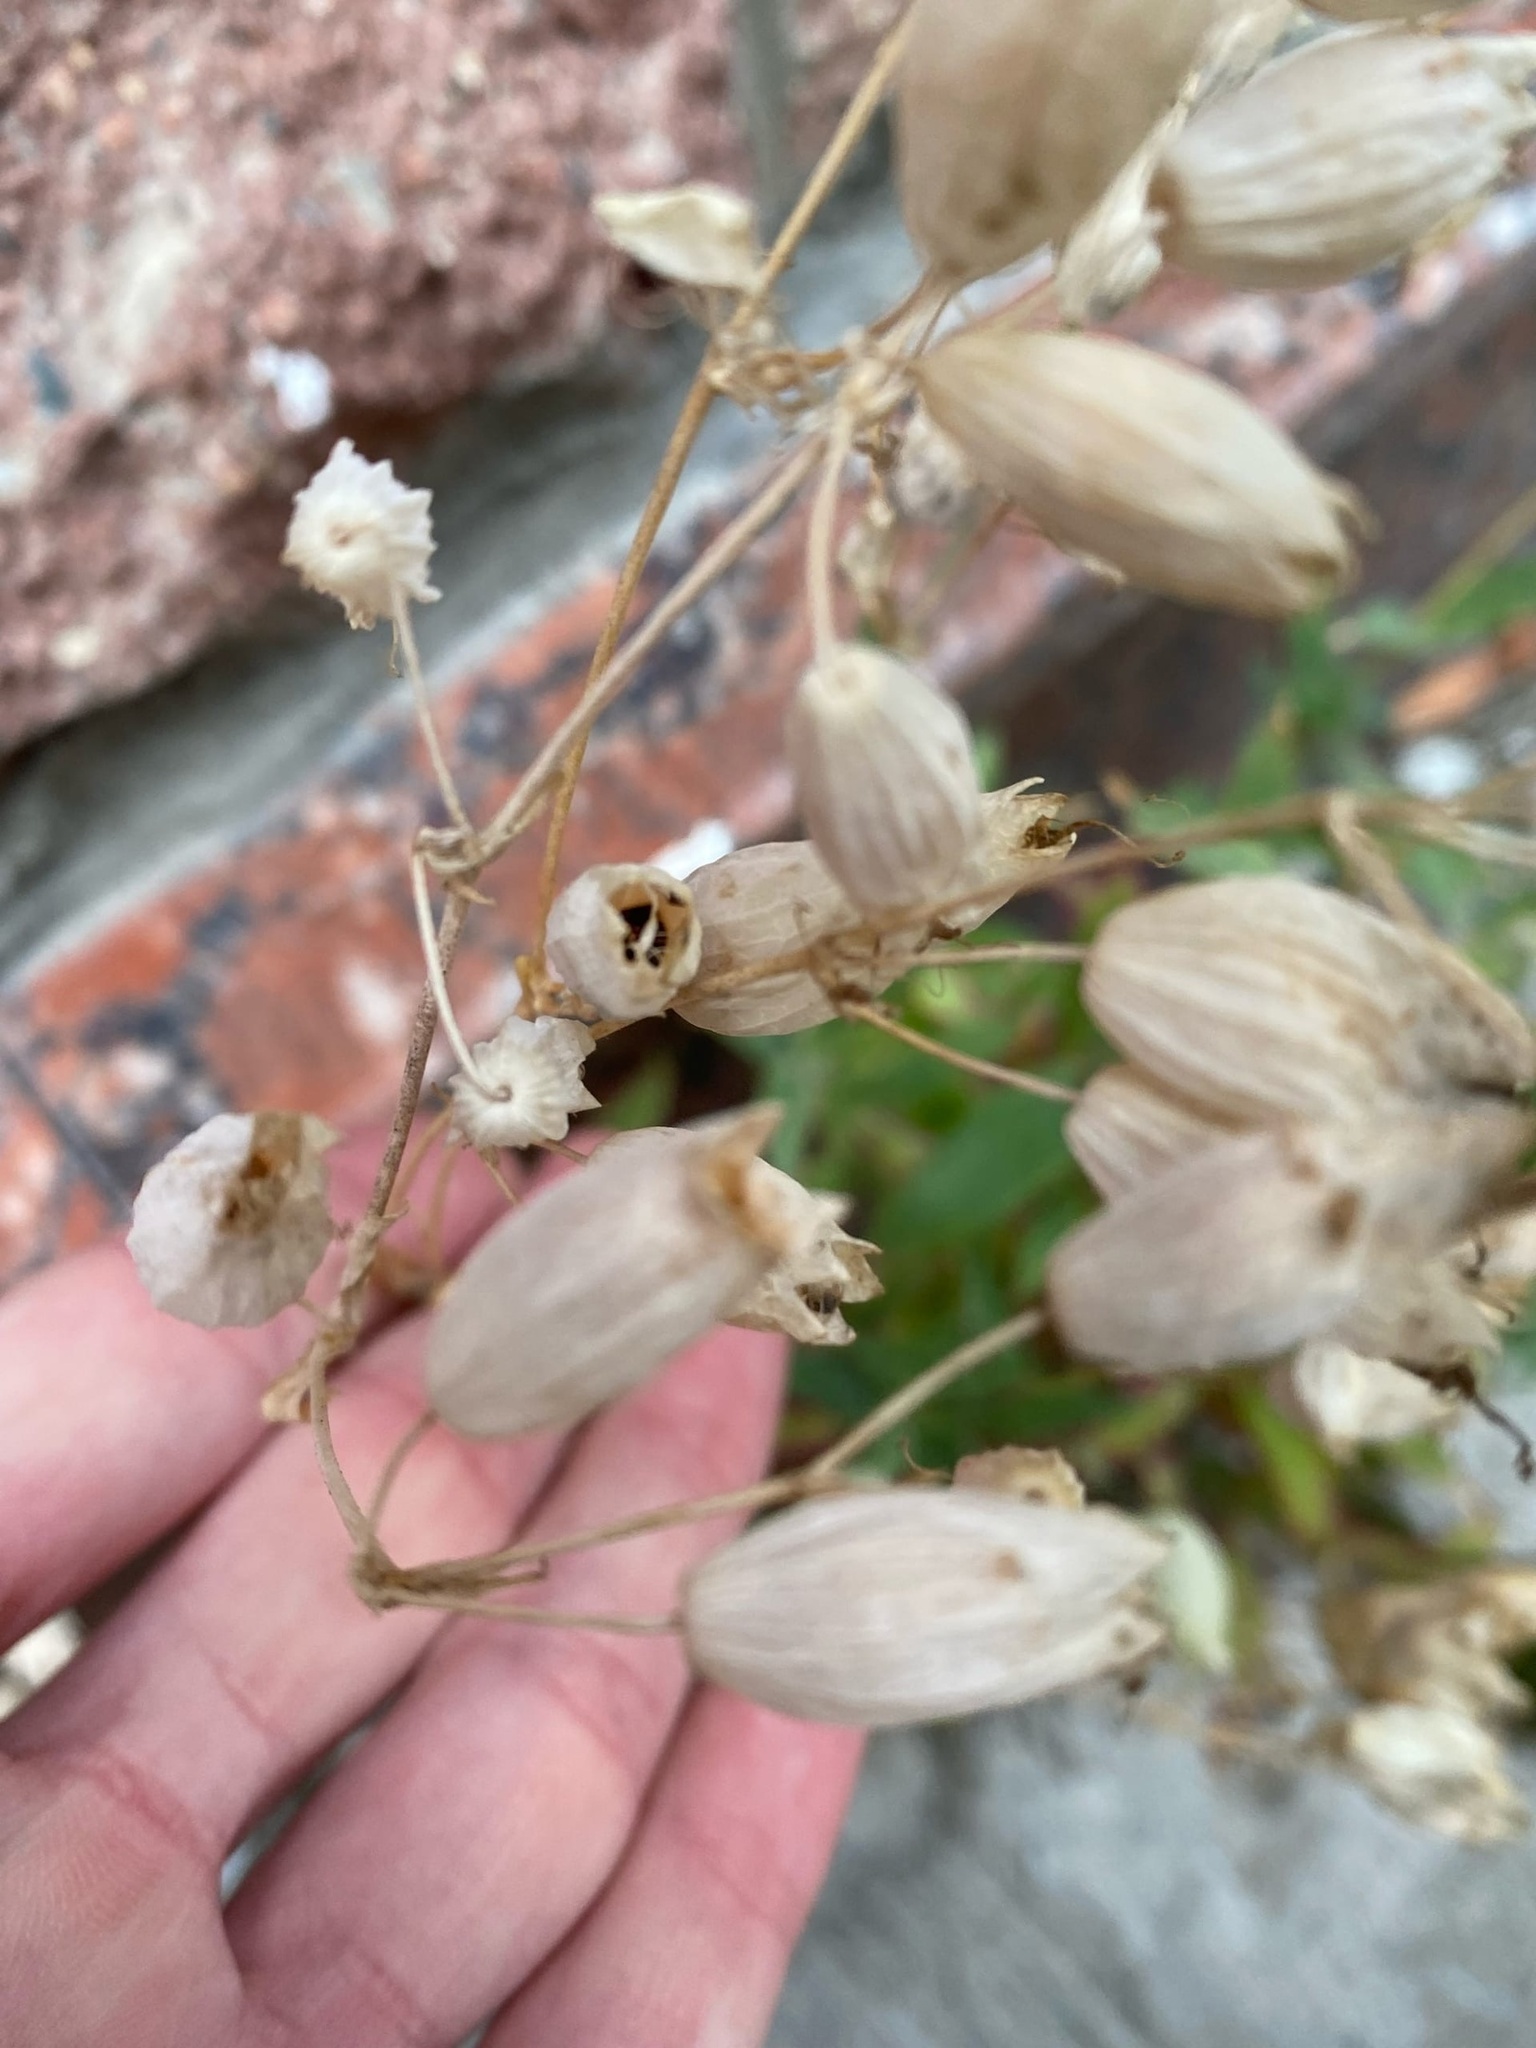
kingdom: Plantae
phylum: Tracheophyta
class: Magnoliopsida
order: Caryophyllales
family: Caryophyllaceae
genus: Silene
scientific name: Silene vulgaris
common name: Bladder campion
